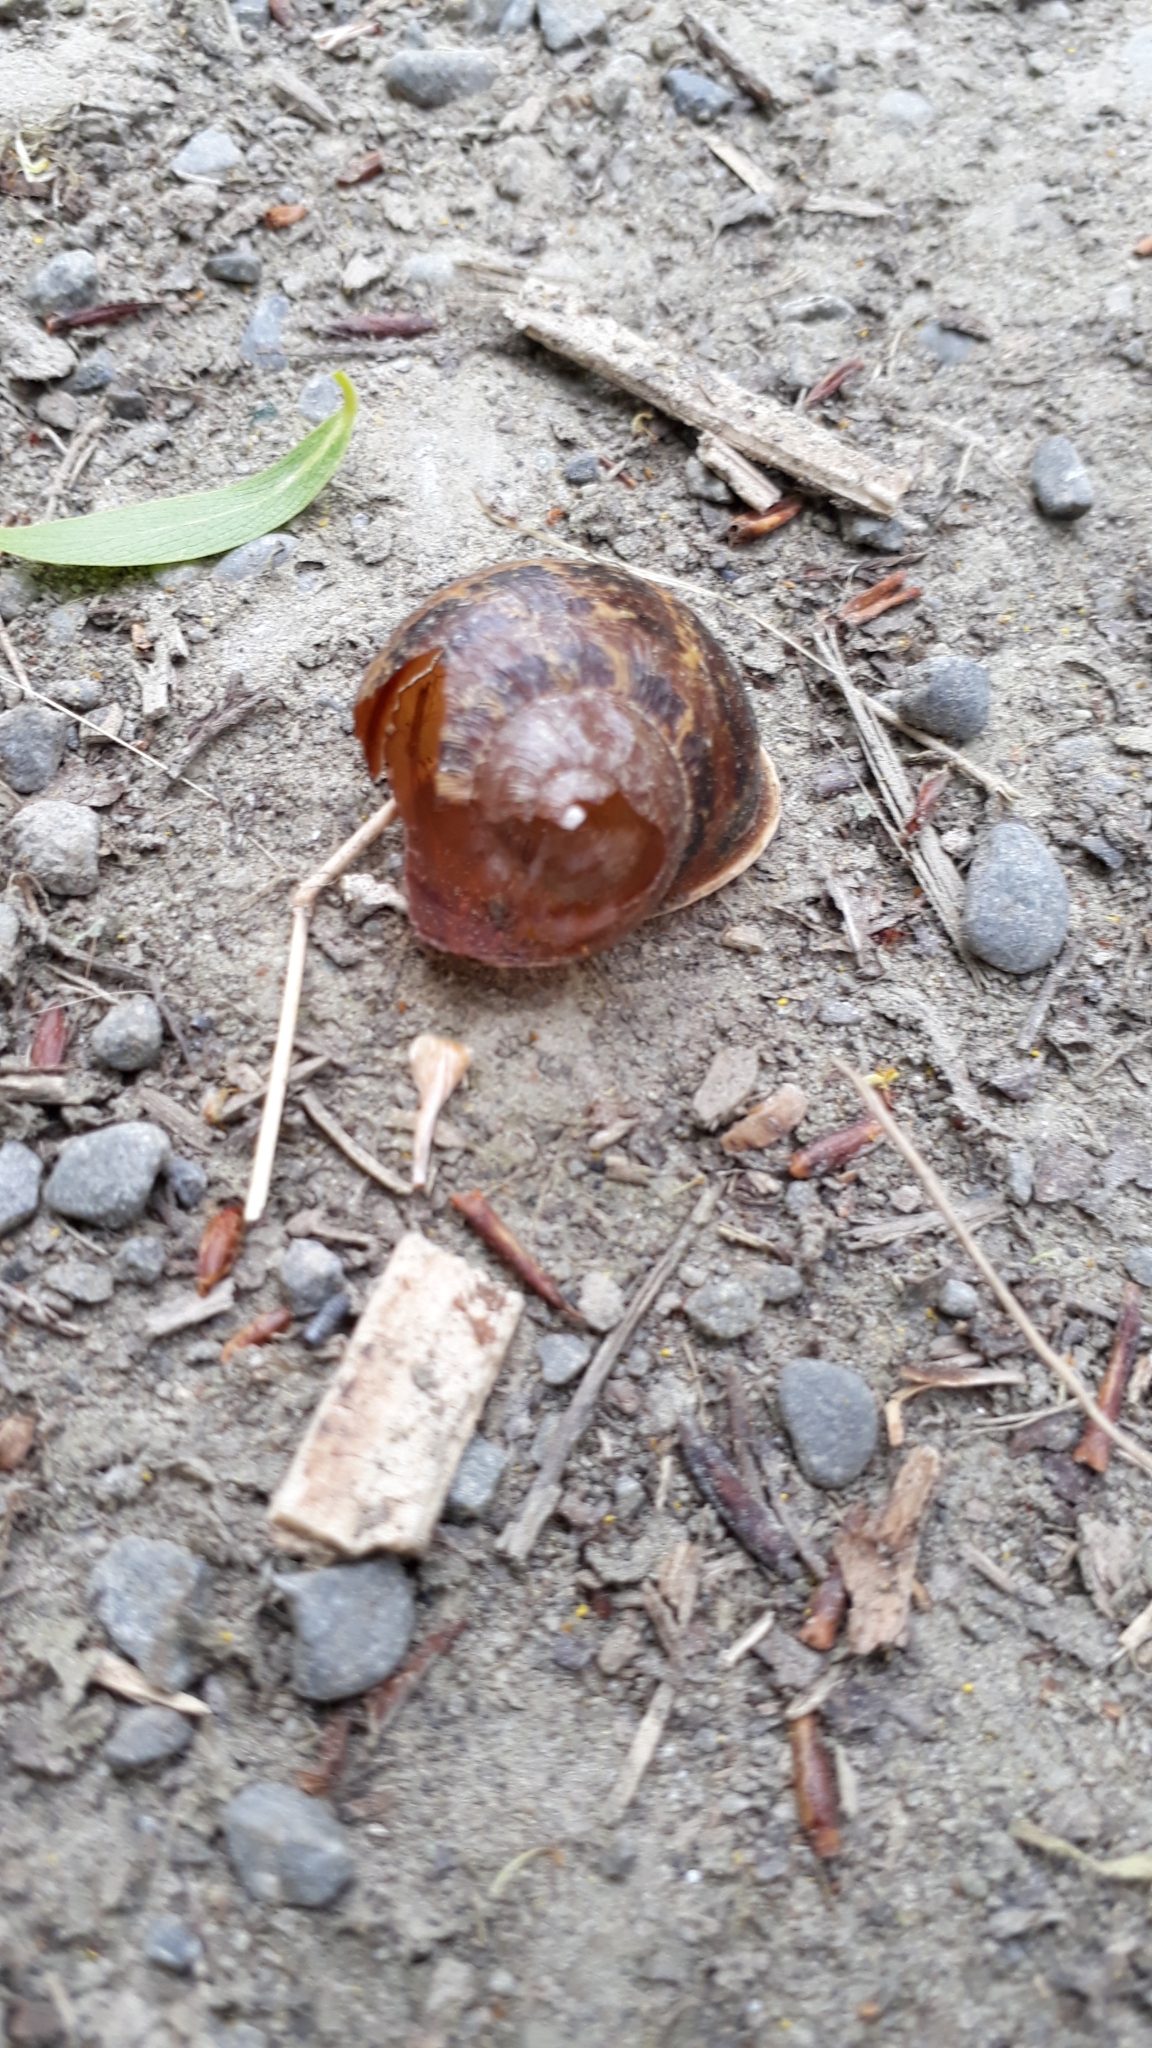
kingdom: Animalia
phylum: Mollusca
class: Gastropoda
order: Stylommatophora
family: Helicidae
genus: Cornu
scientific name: Cornu aspersum
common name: Brown garden snail
